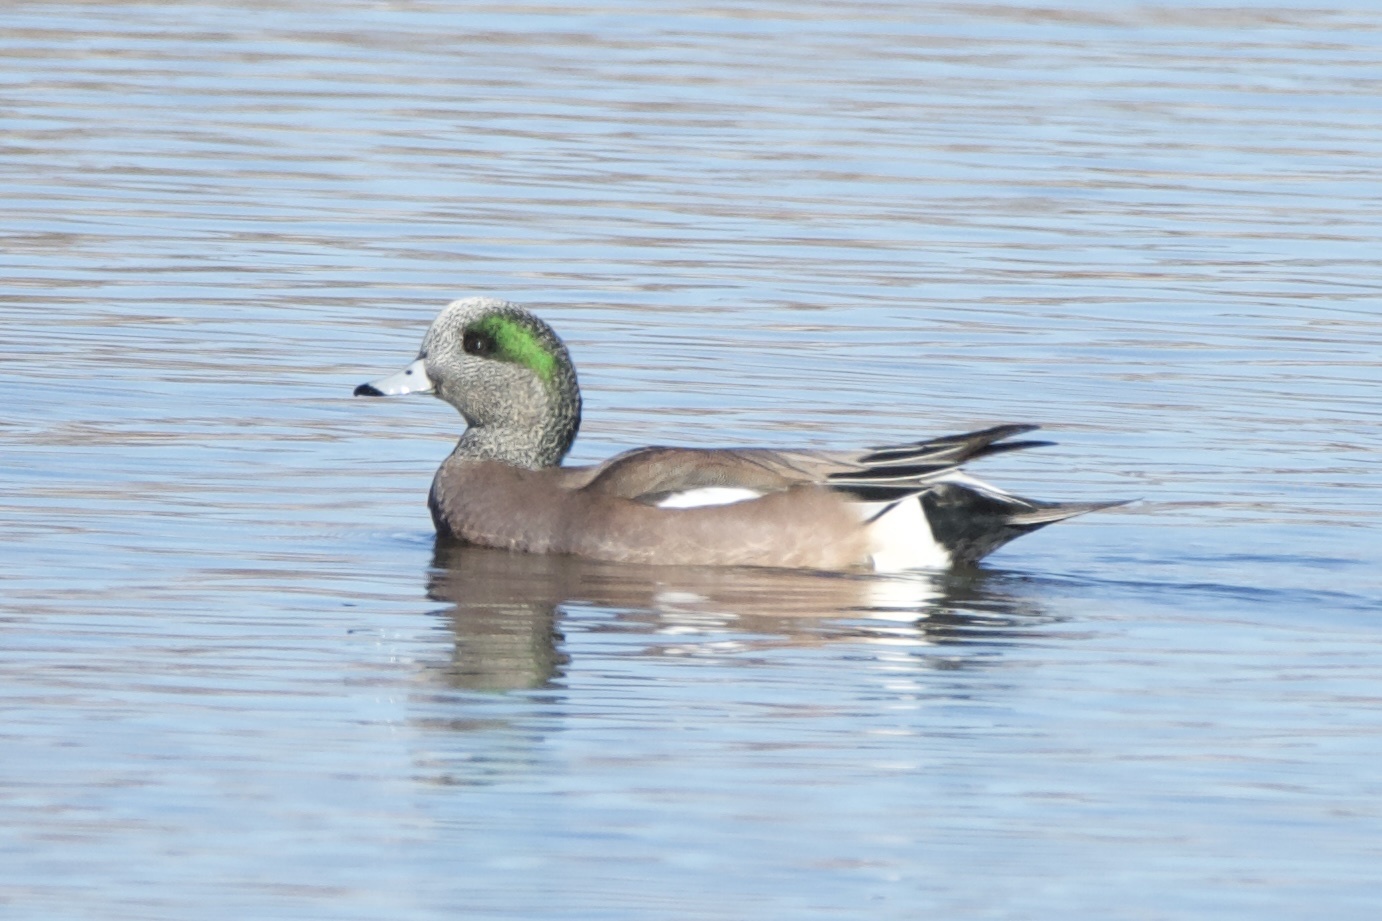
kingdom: Animalia
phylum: Chordata
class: Aves
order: Anseriformes
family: Anatidae
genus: Mareca
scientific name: Mareca americana
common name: American wigeon
